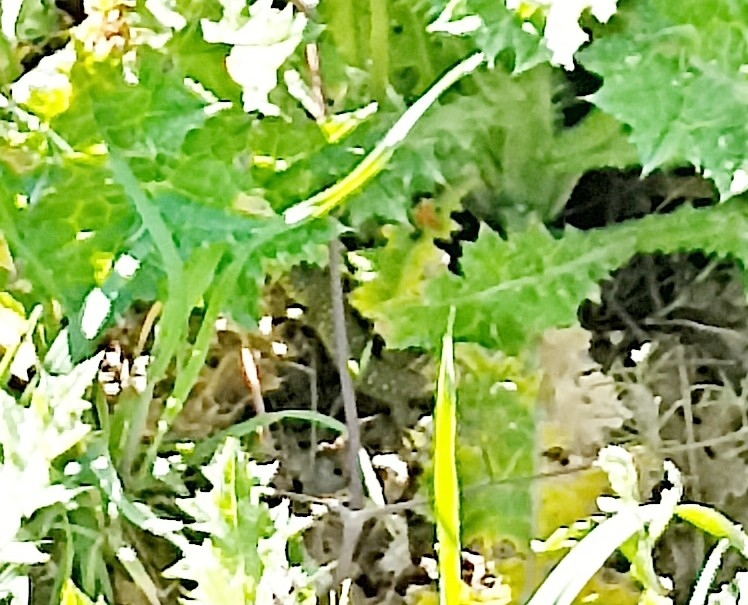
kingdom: Animalia
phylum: Chordata
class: Squamata
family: Lacertidae
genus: Timon
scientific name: Timon lepidus
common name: Ocellated lizard
